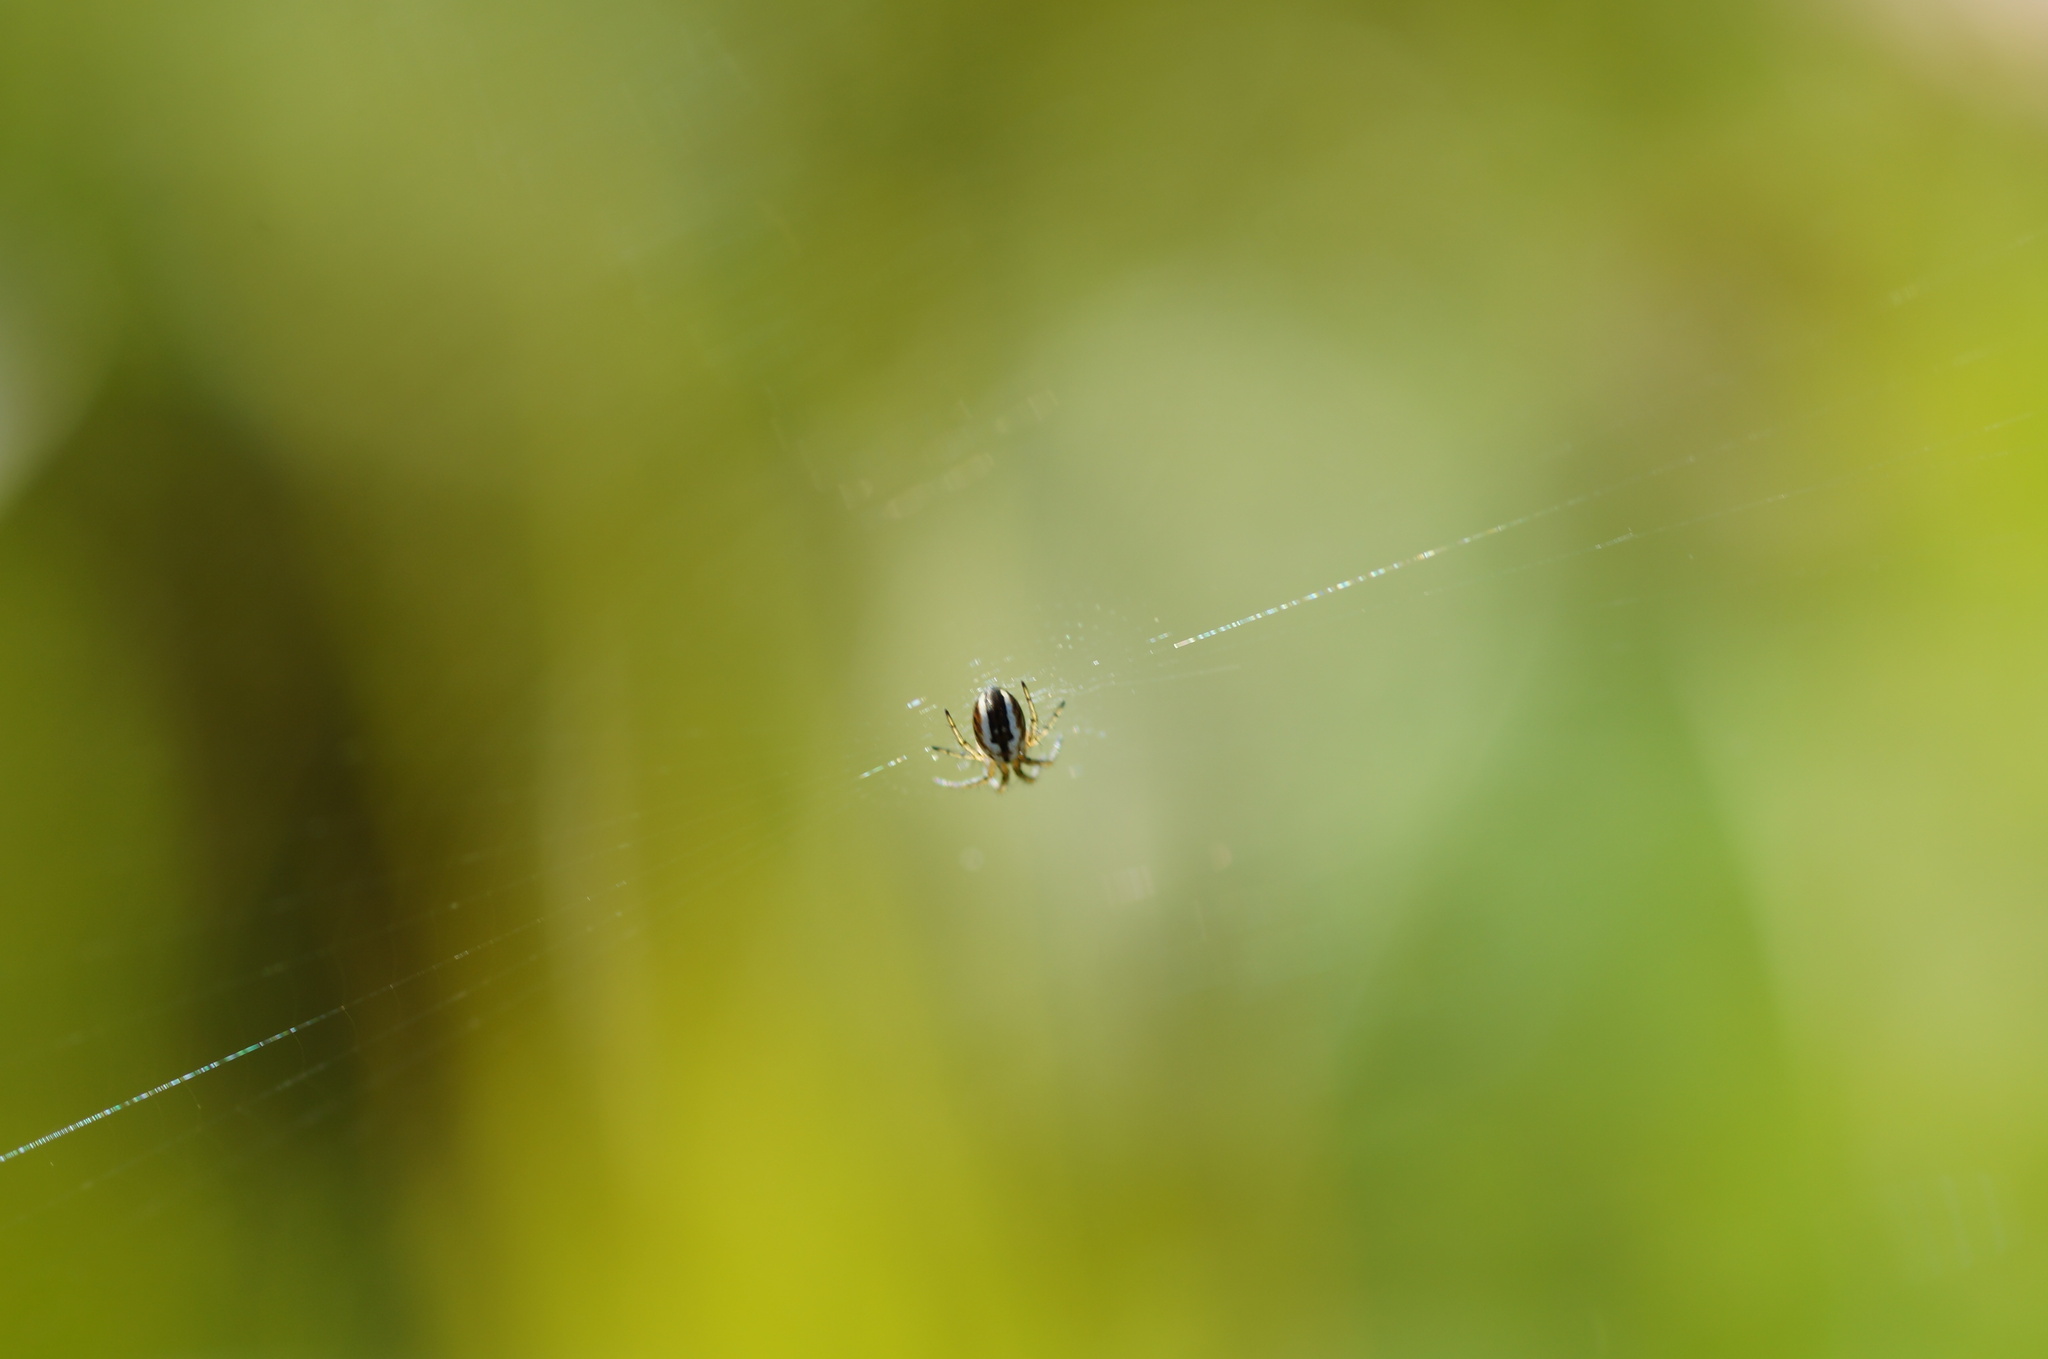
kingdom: Animalia
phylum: Arthropoda
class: Arachnida
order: Araneae
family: Araneidae
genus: Mangora
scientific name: Mangora acalypha
